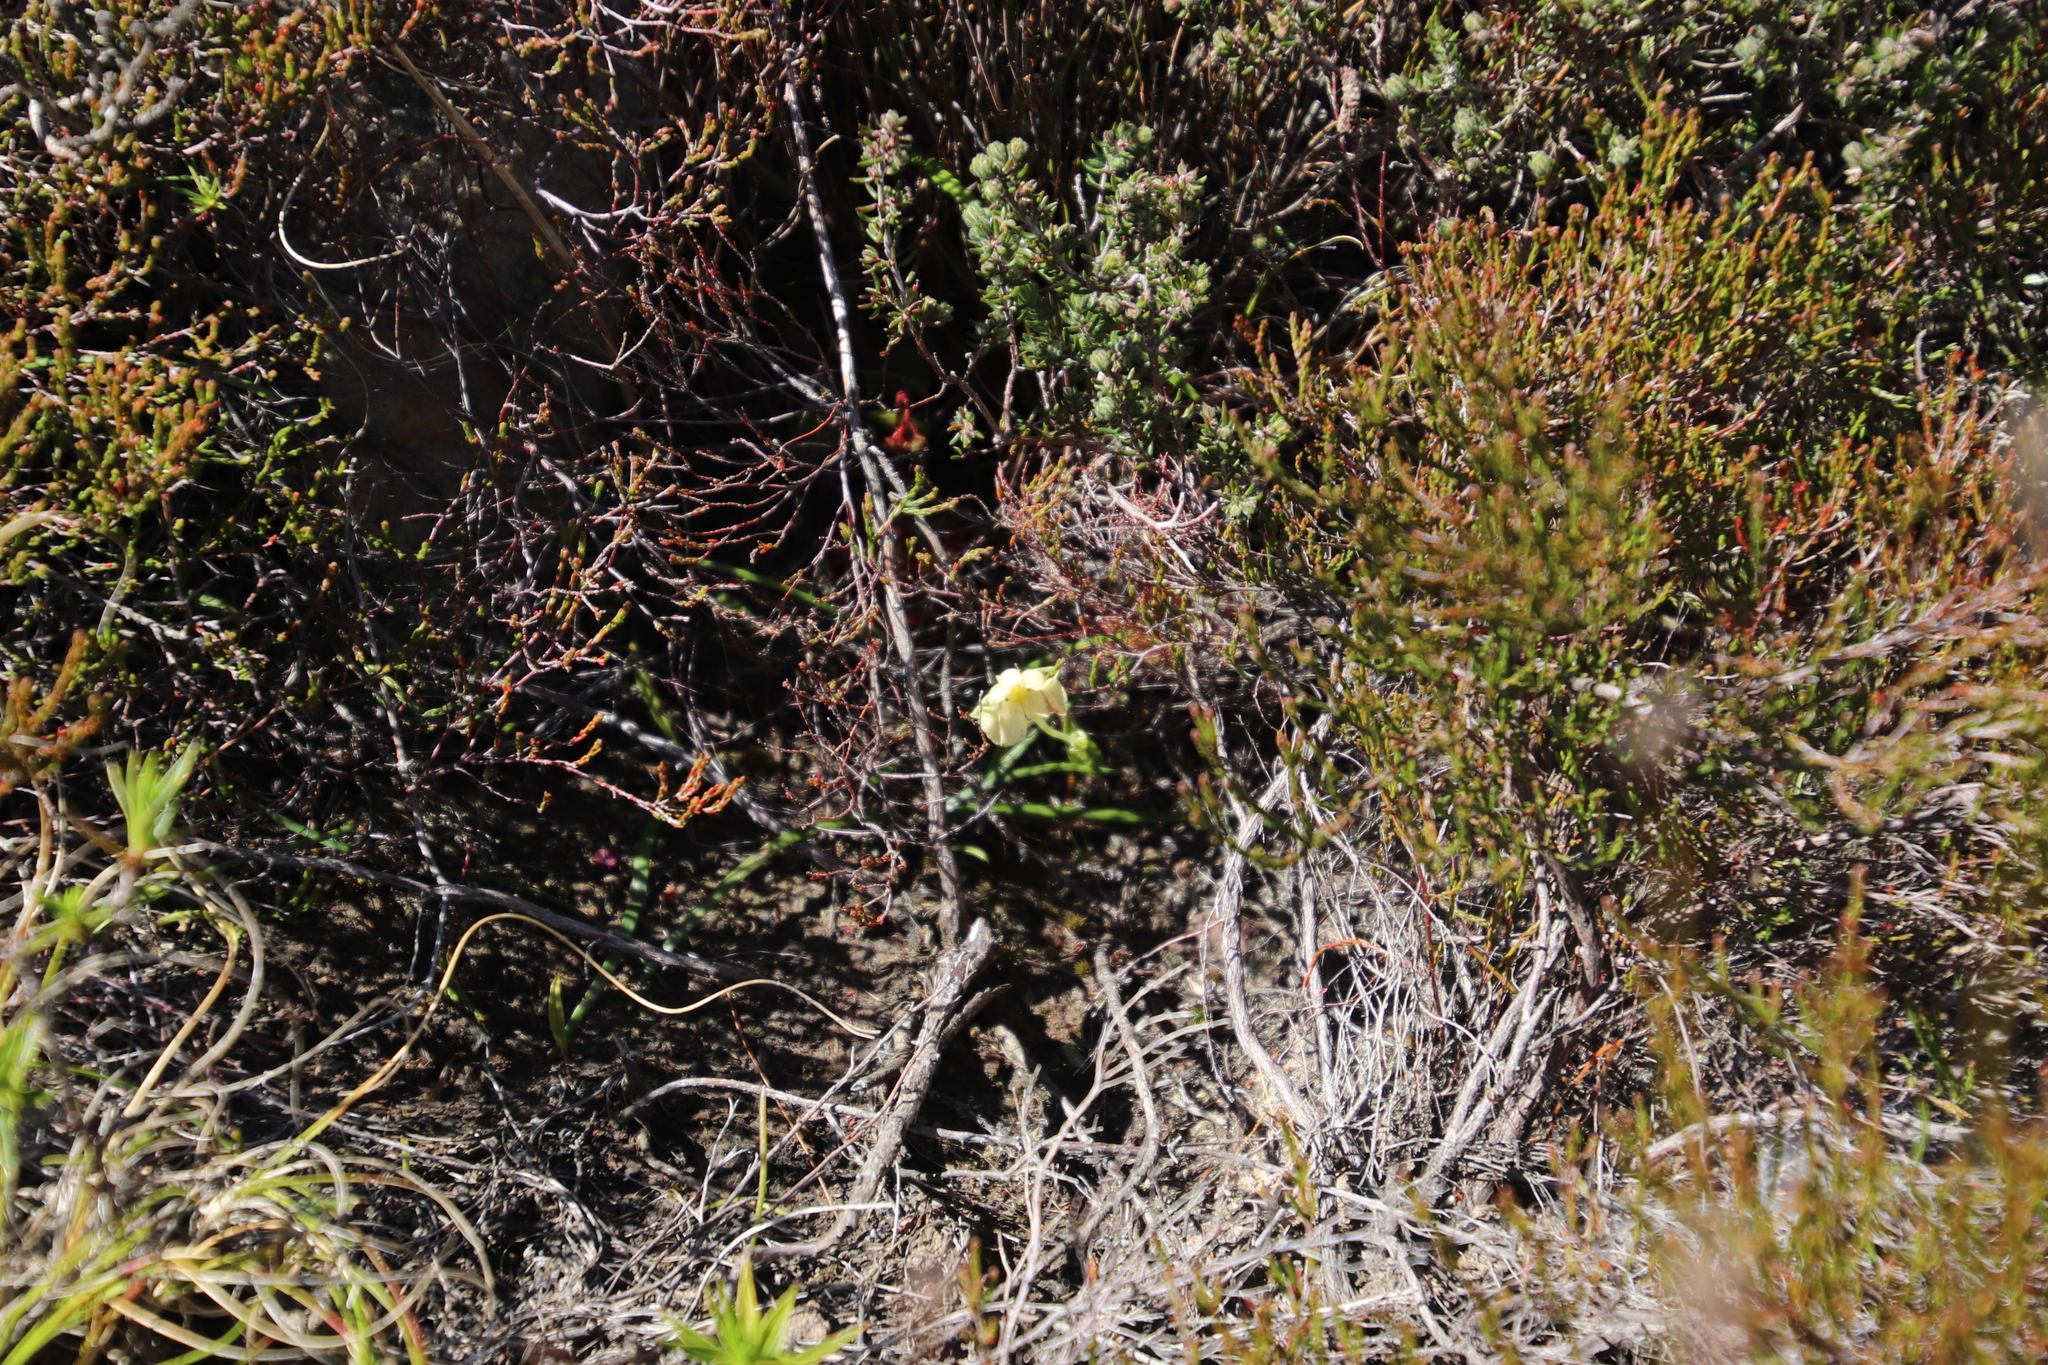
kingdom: Plantae
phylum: Tracheophyta
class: Liliopsida
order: Asparagales
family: Orchidaceae
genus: Pterygodium
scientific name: Pterygodium platypetalum
